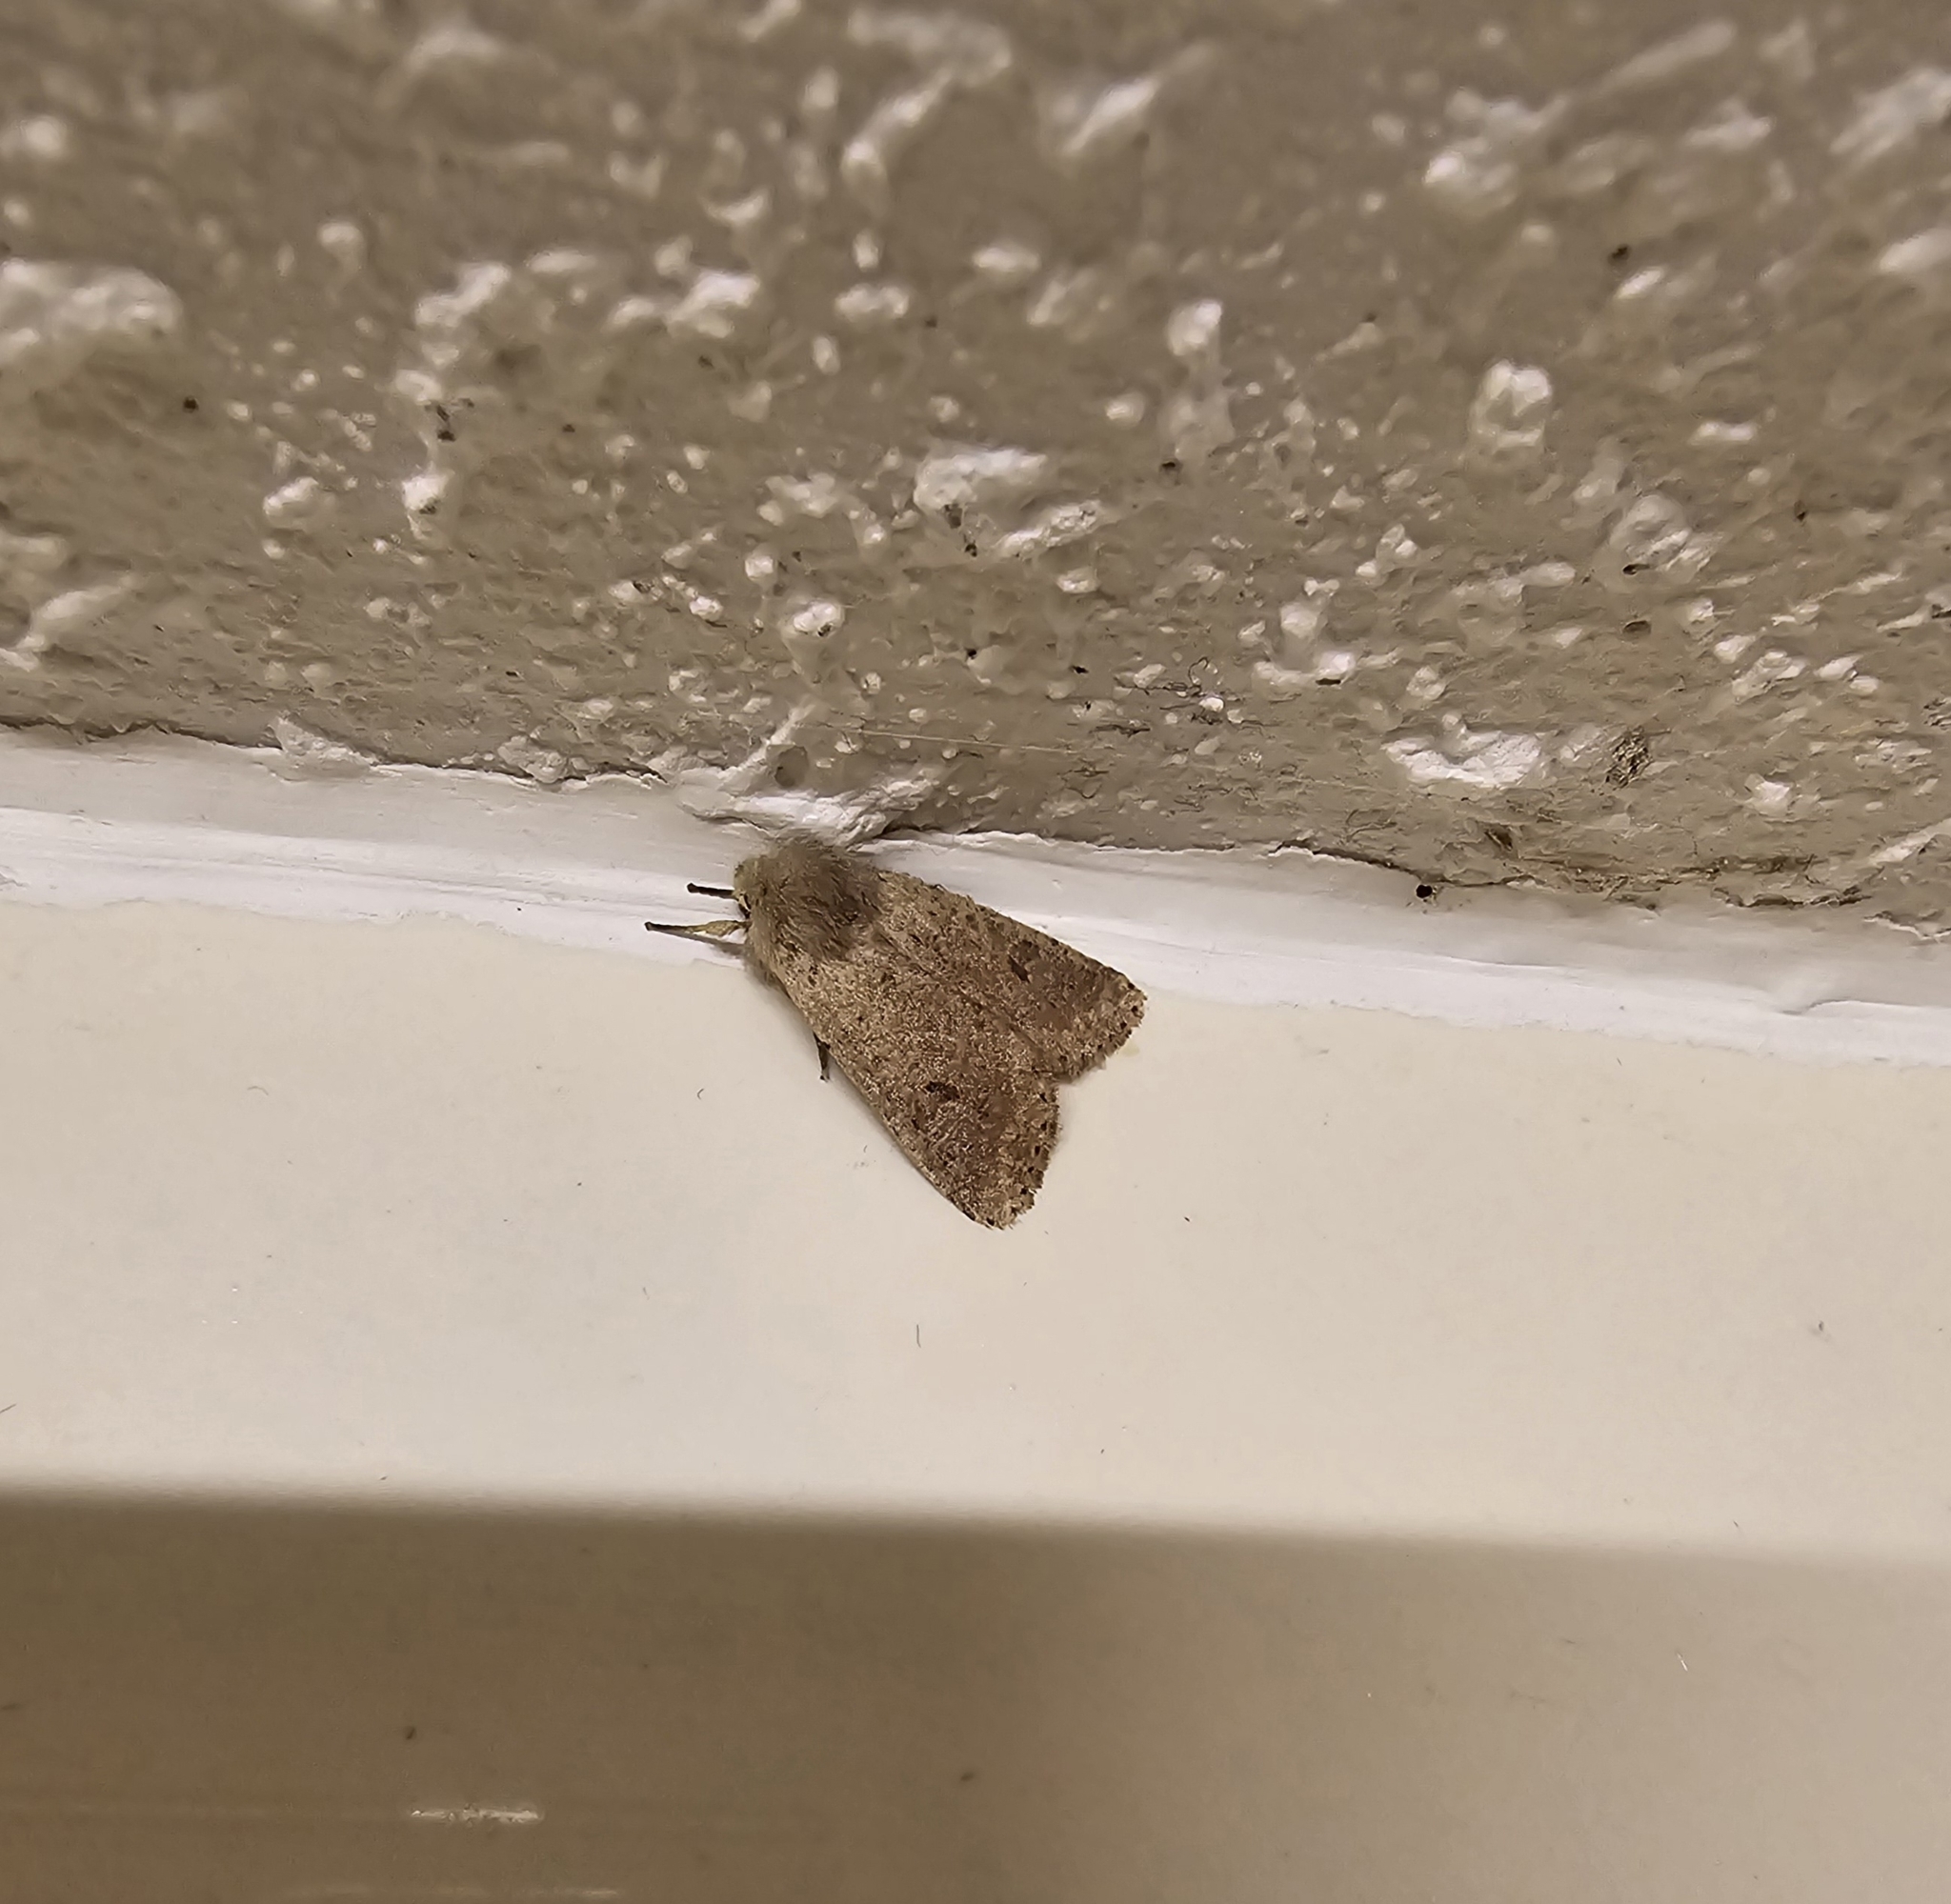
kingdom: Animalia
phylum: Arthropoda
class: Insecta
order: Lepidoptera
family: Noctuidae
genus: Orthosia
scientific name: Orthosia cruda
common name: Small quaker
